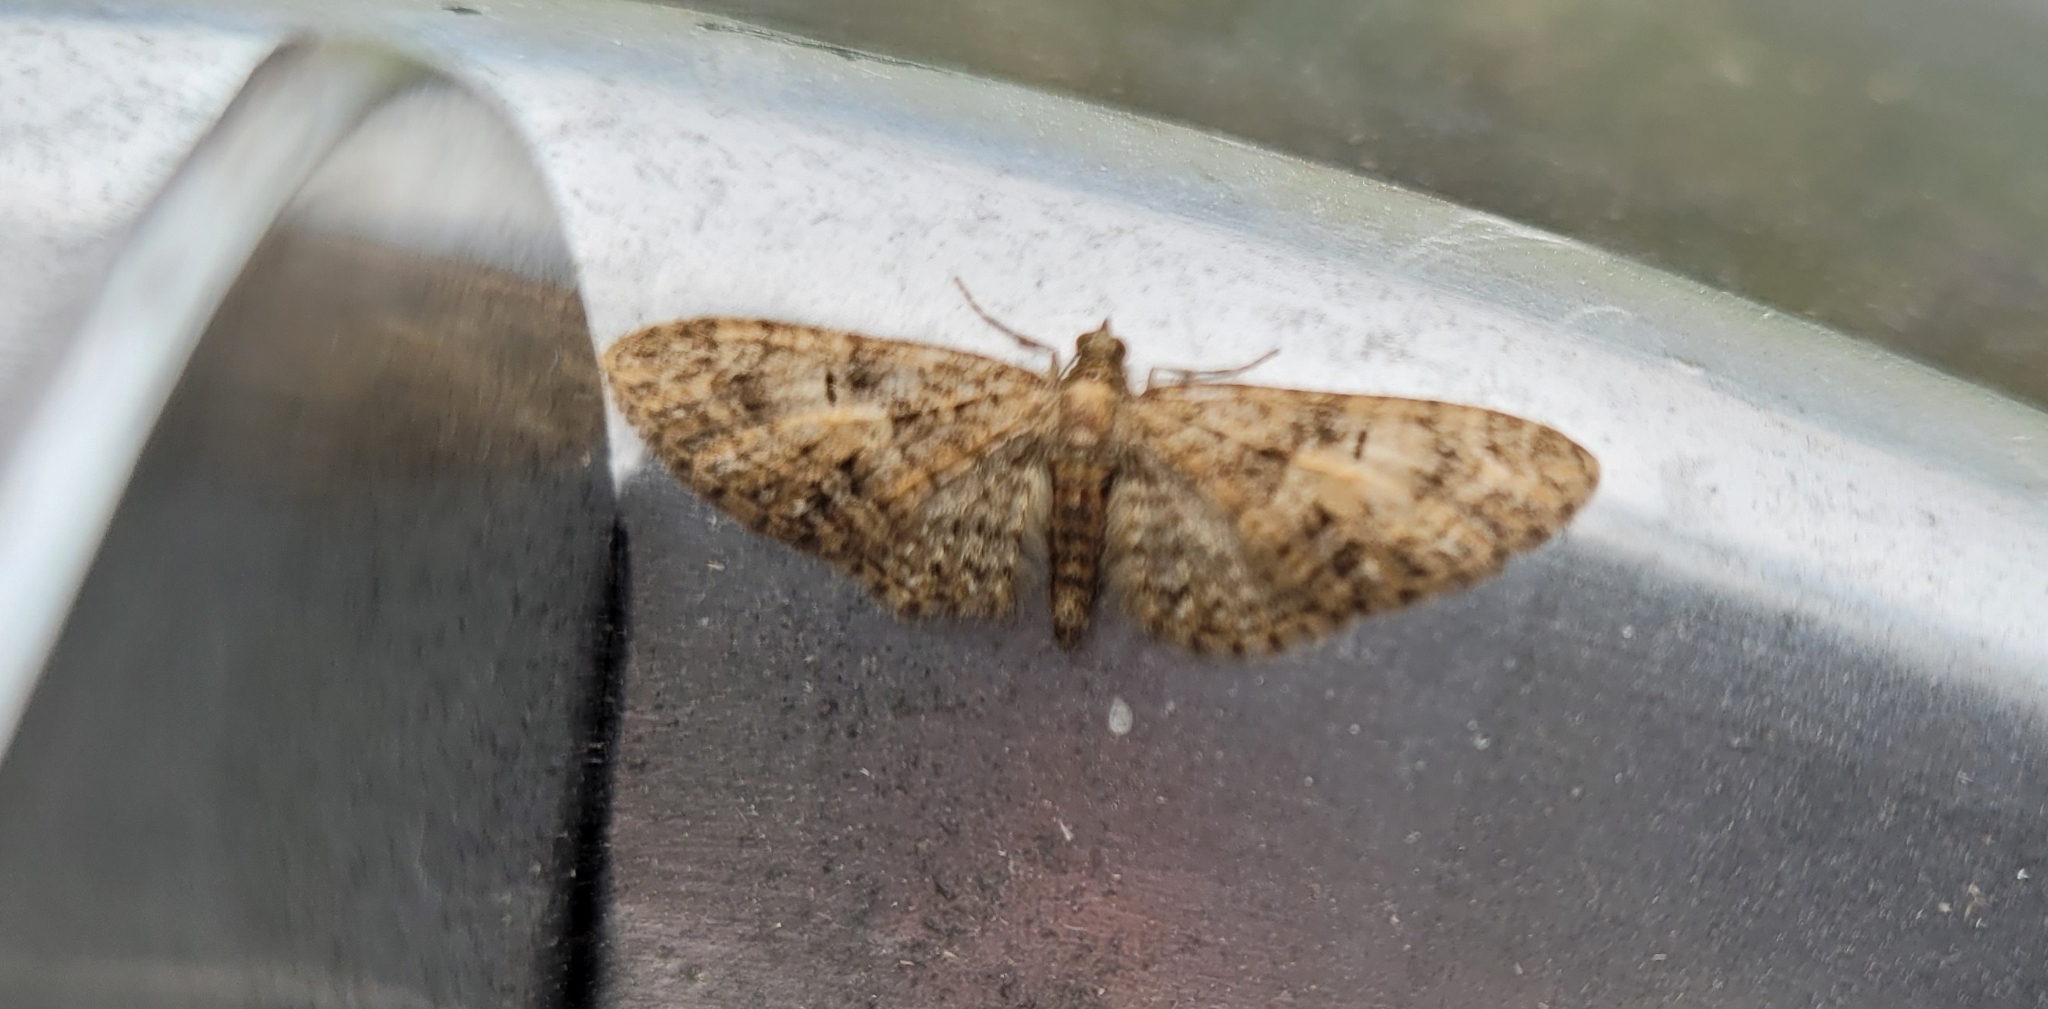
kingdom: Animalia
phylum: Arthropoda
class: Insecta
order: Lepidoptera
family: Geometridae
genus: Eupithecia
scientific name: Eupithecia abbreviata
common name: Brindled pug
